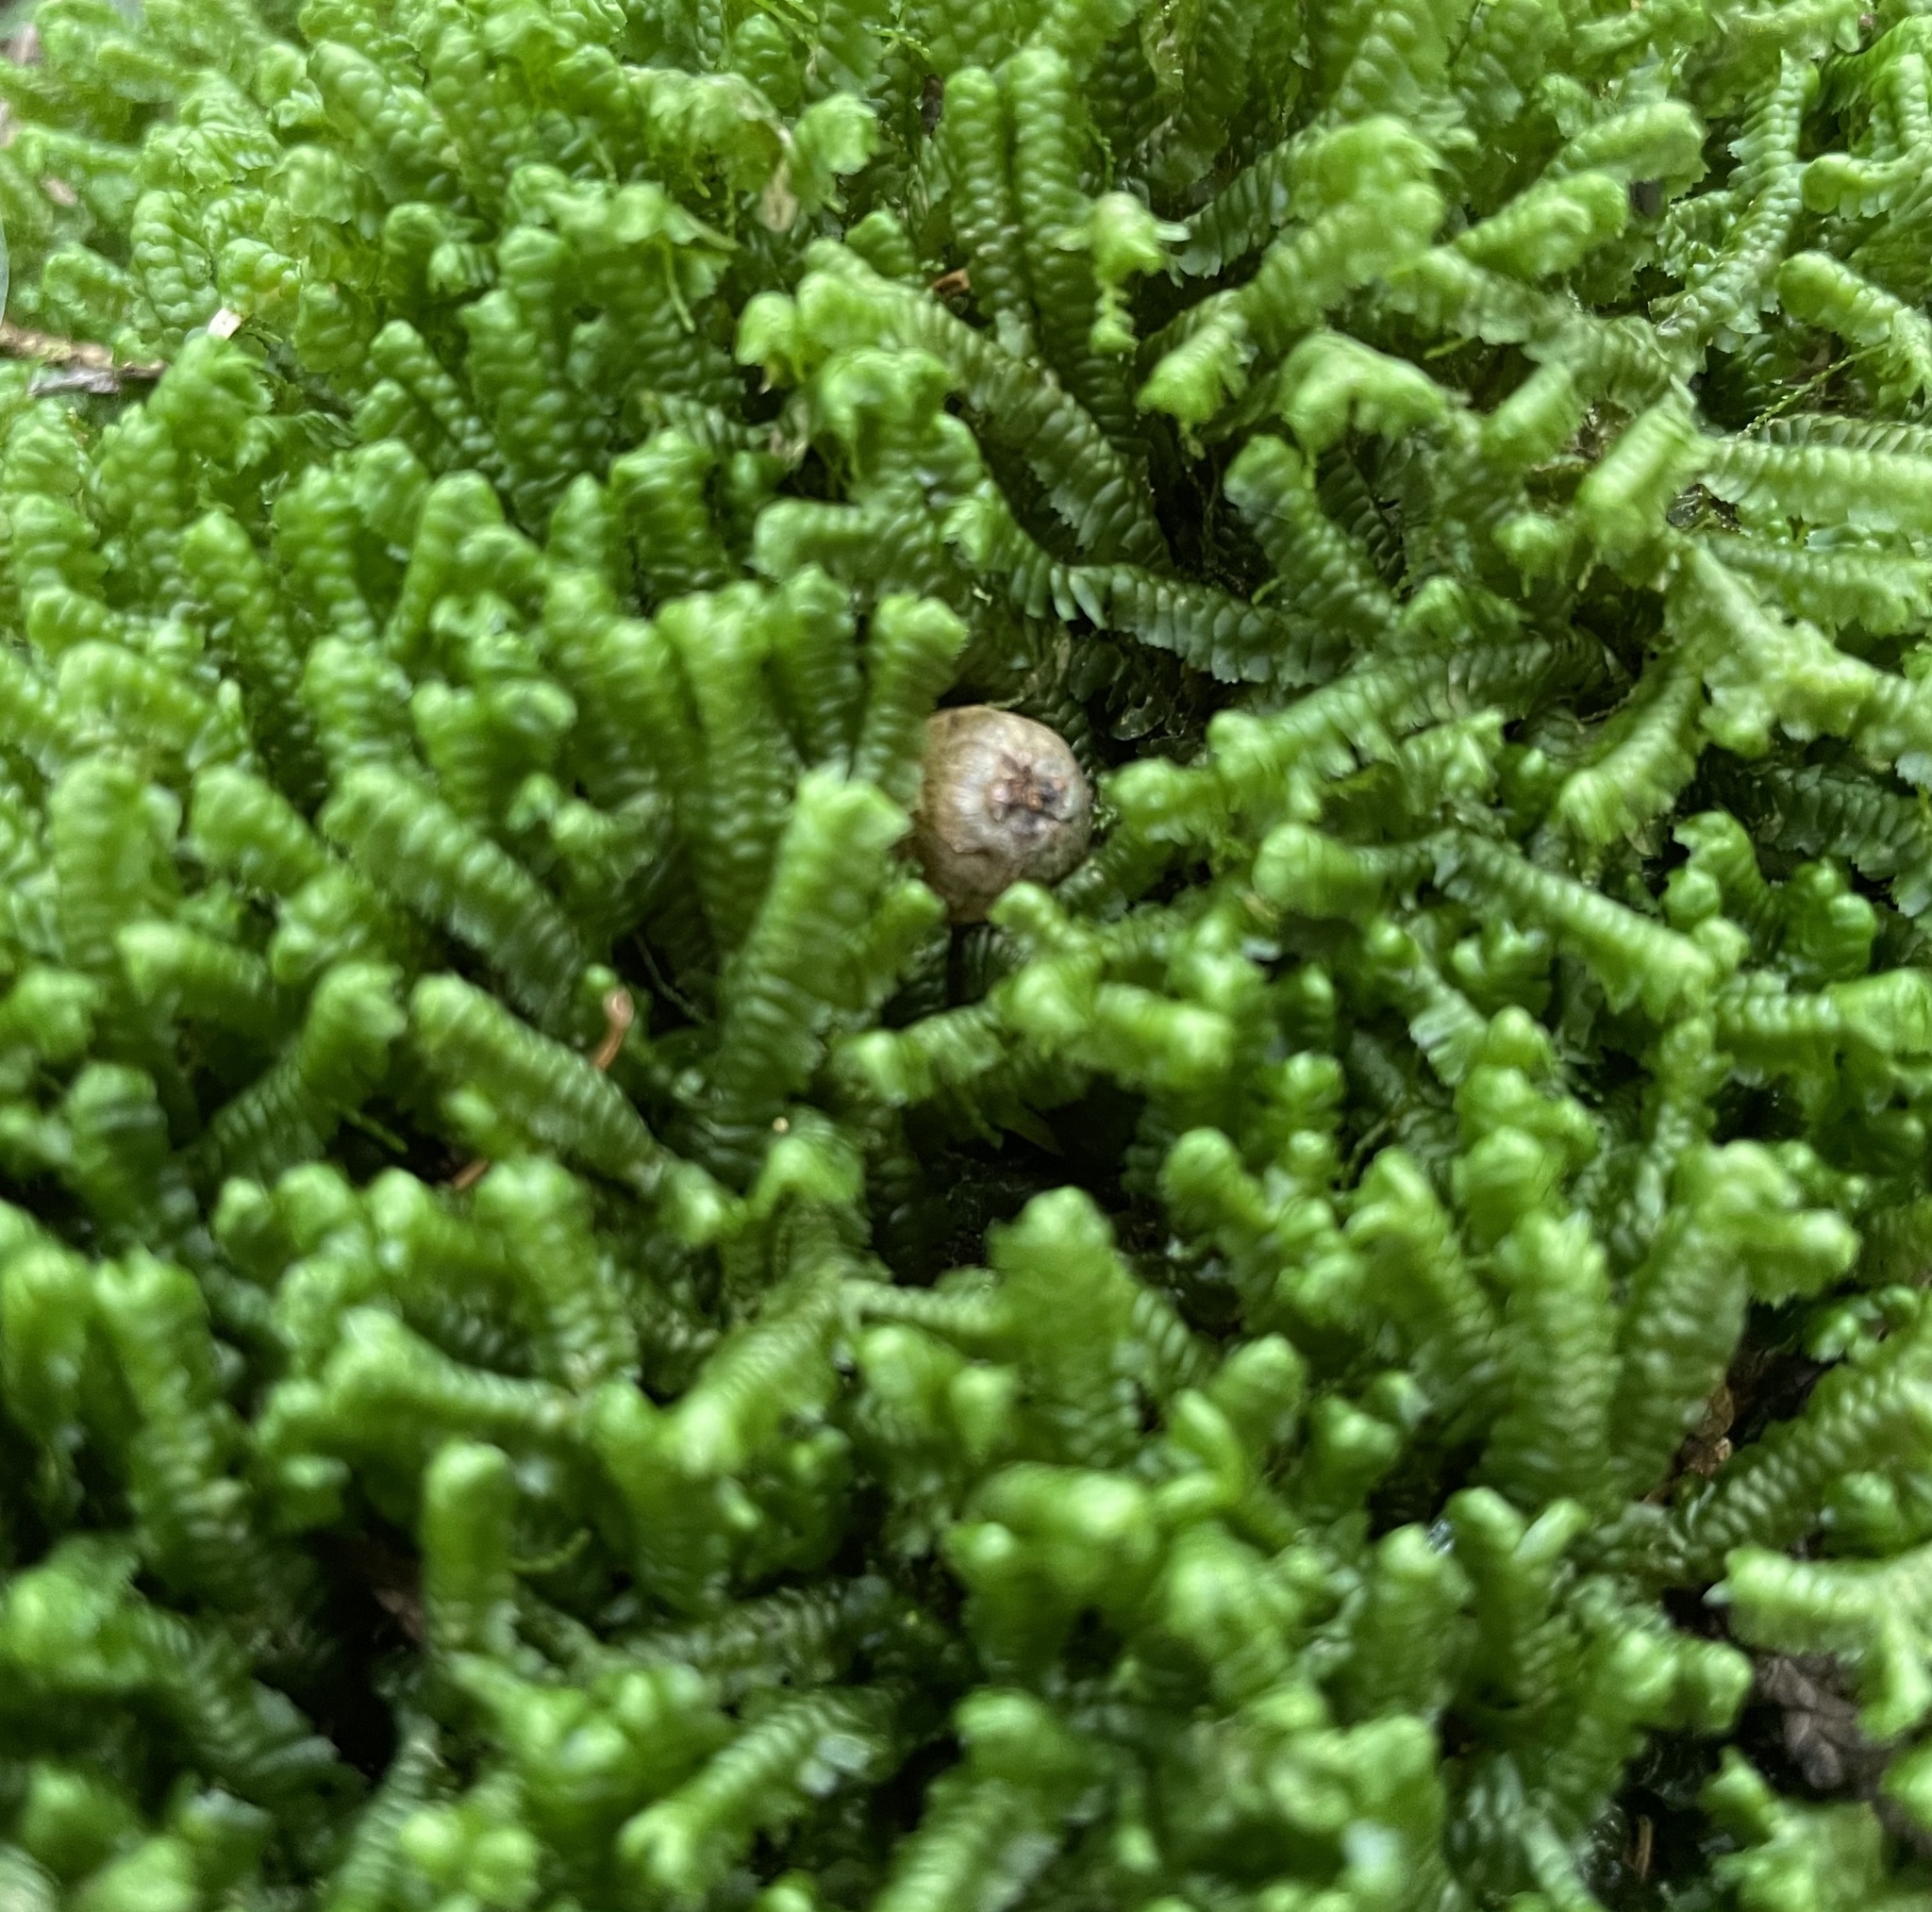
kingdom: Plantae
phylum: Marchantiophyta
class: Jungermanniopsida
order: Jungermanniales
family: Lepidoziaceae
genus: Bazzania
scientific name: Bazzania trilobata
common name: Three-lobed whipwort
